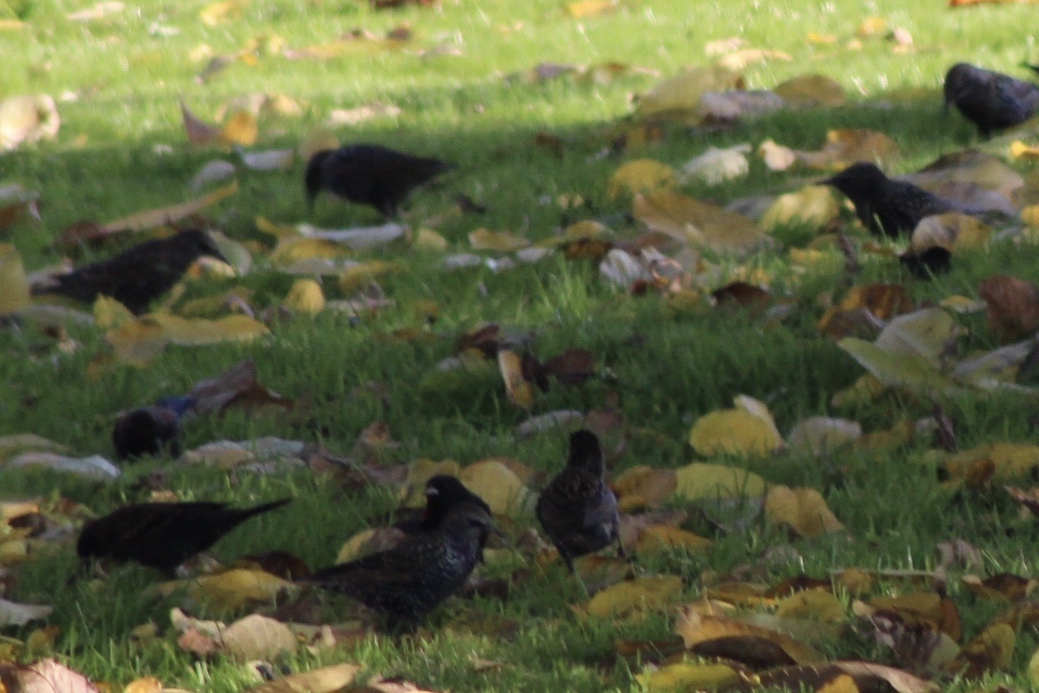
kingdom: Animalia
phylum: Chordata
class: Aves
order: Passeriformes
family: Sturnidae
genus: Sturnus
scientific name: Sturnus vulgaris
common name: Common starling
